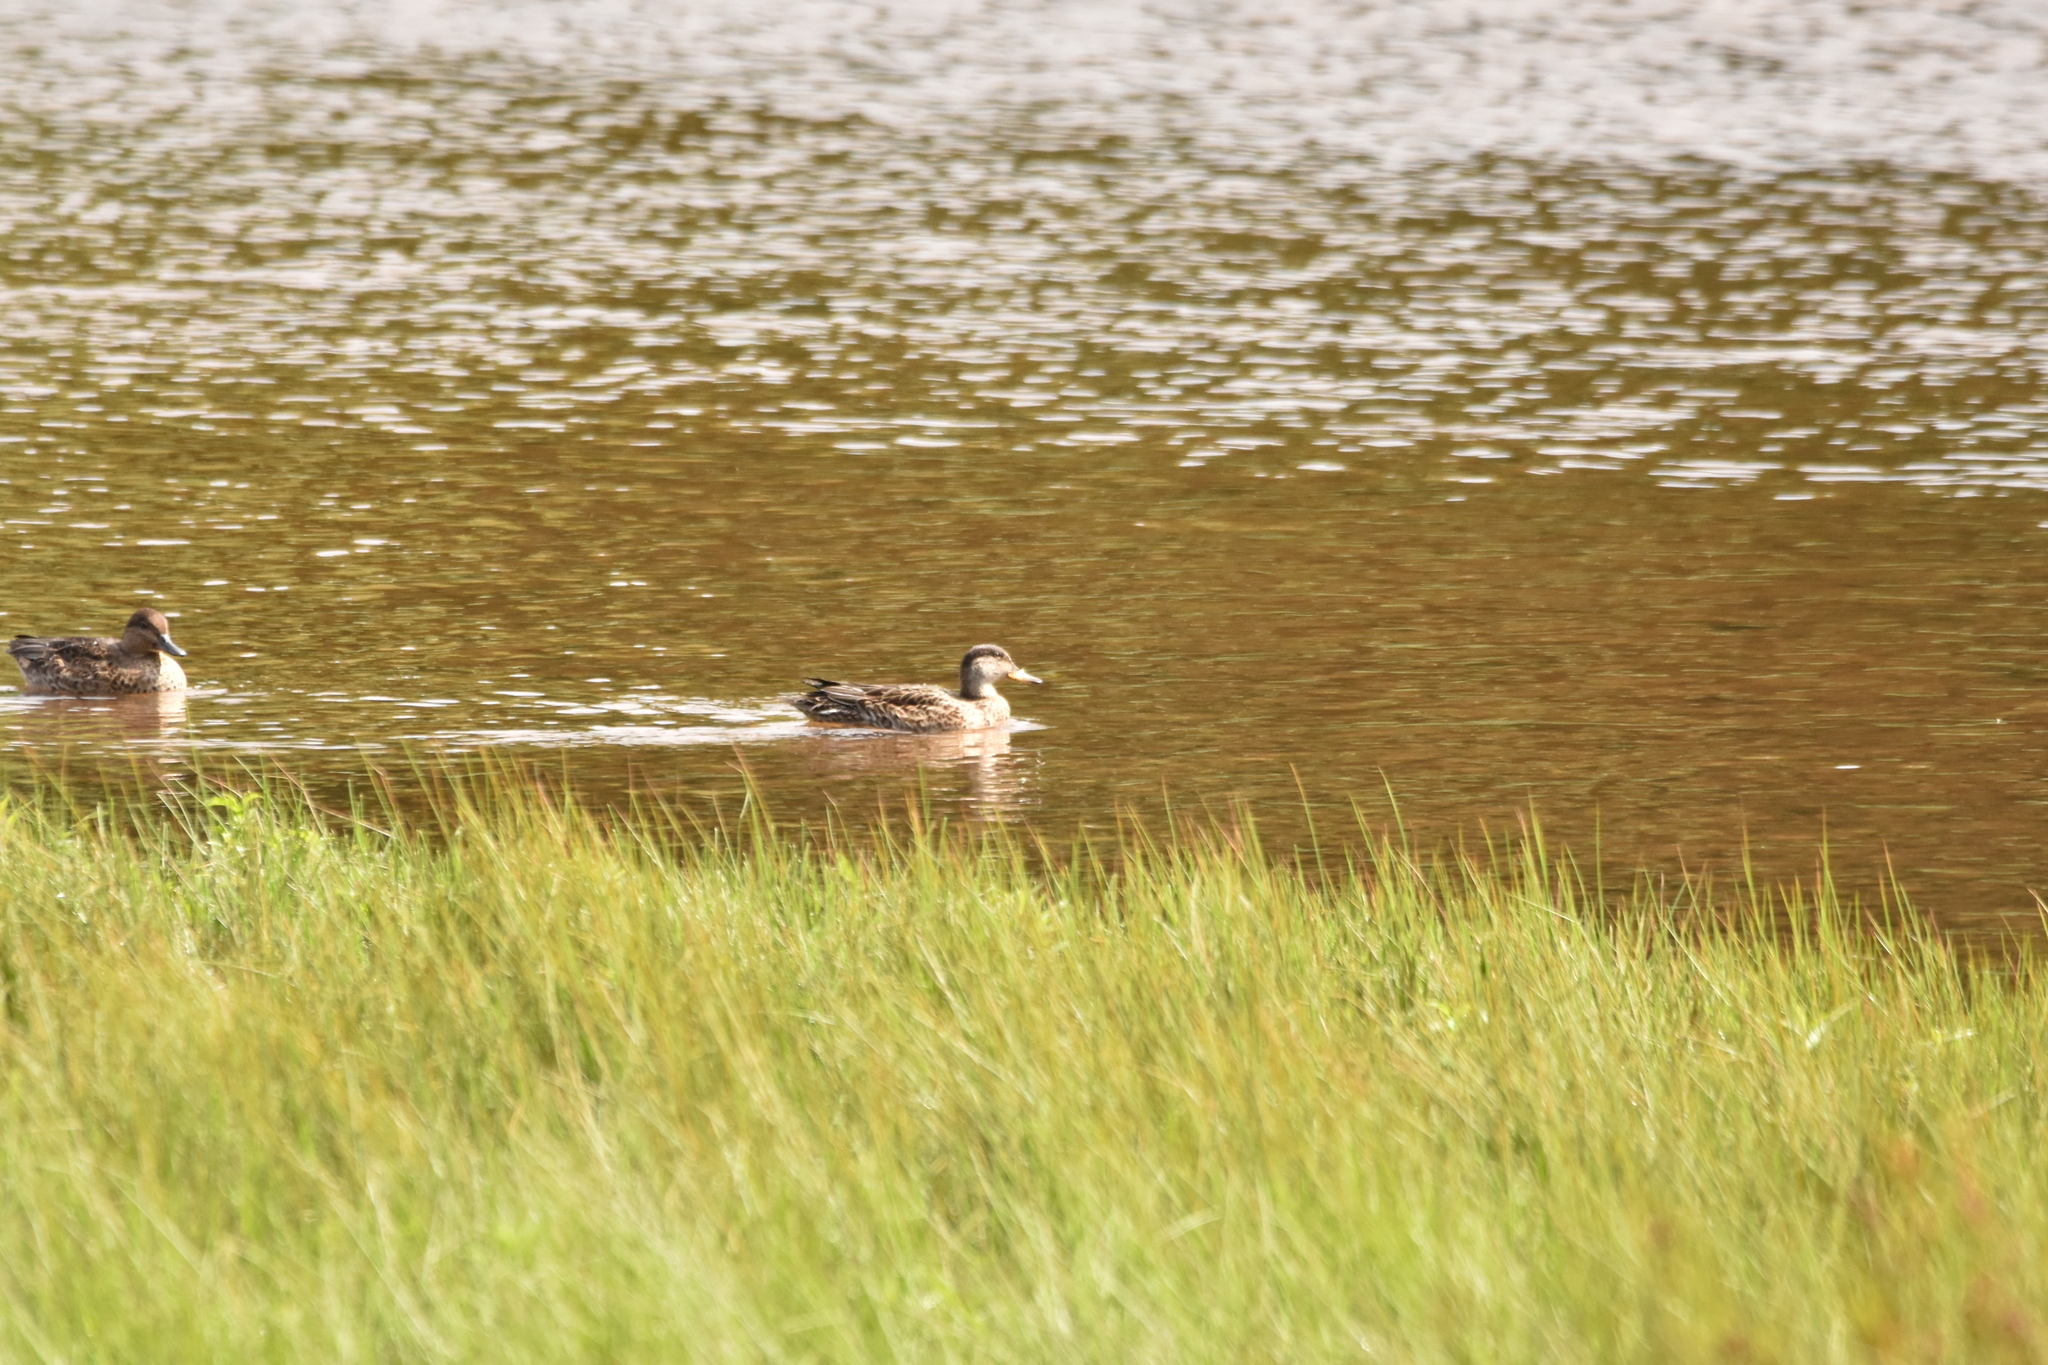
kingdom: Animalia
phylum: Chordata
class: Aves
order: Anseriformes
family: Anatidae
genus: Anas
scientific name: Anas crecca
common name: Eurasian teal
